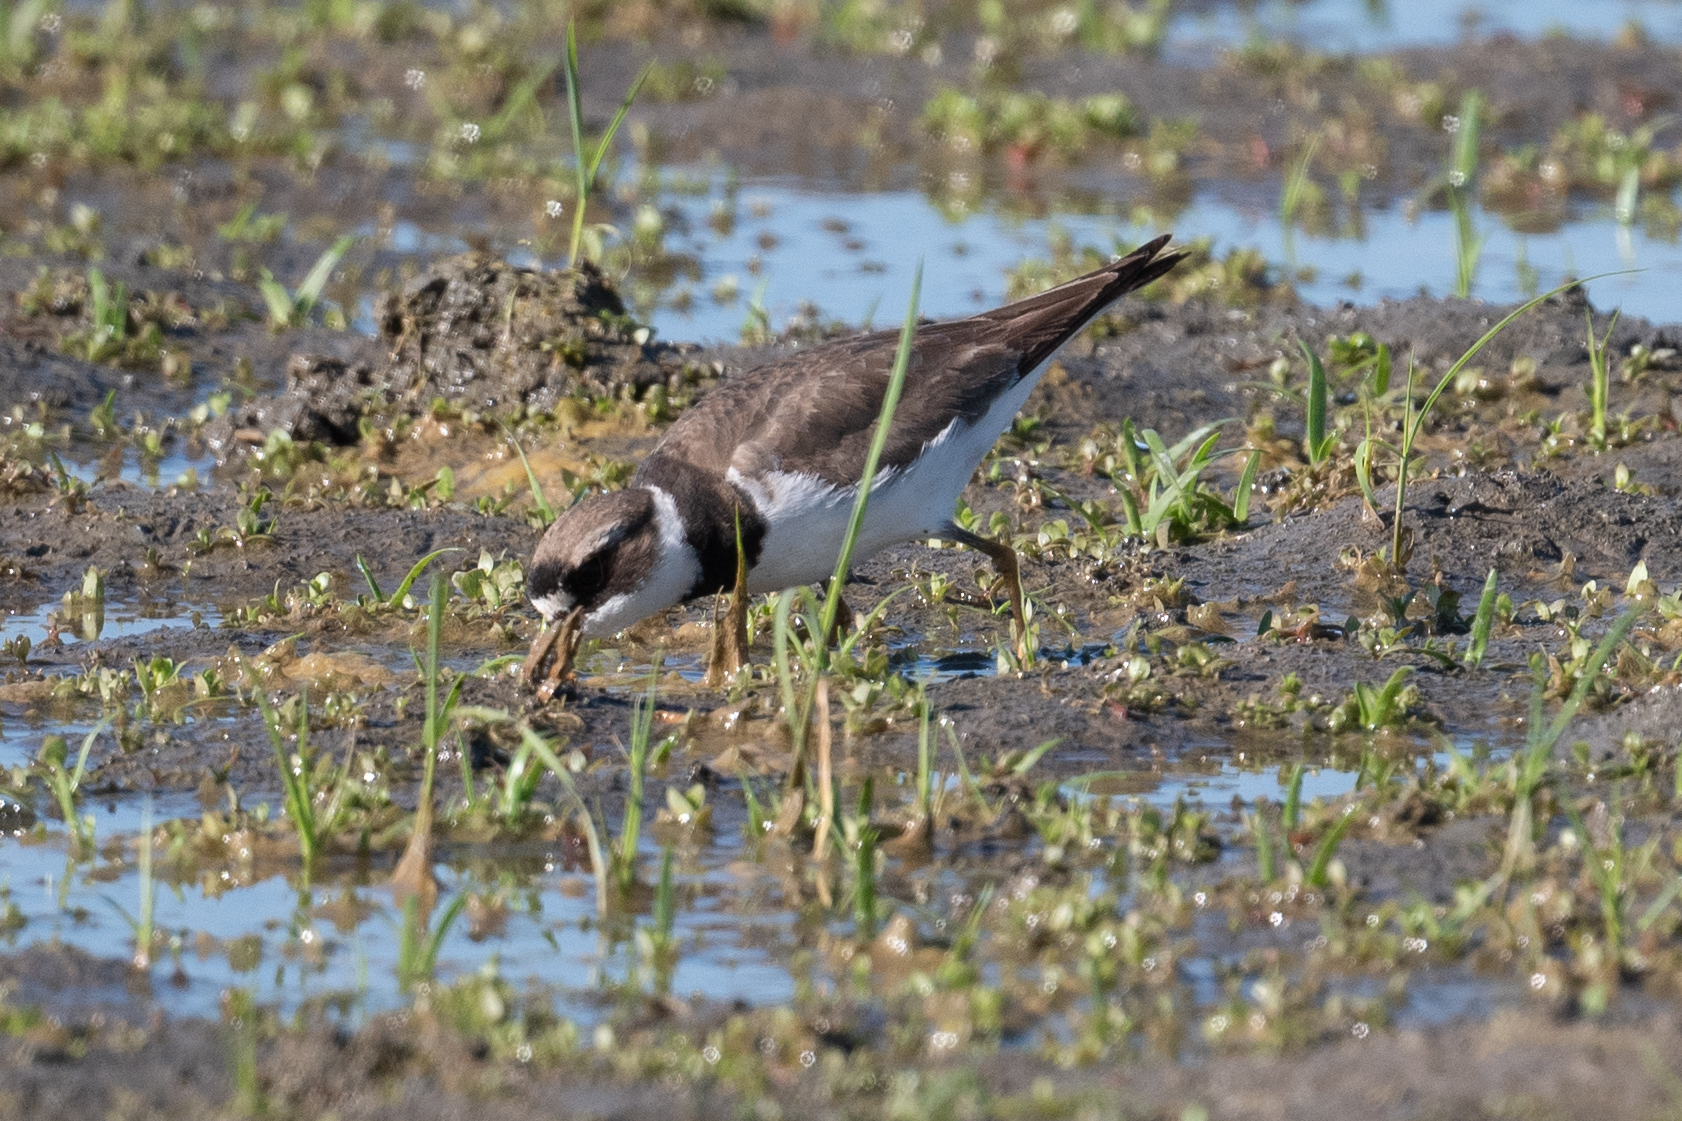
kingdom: Animalia
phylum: Chordata
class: Aves
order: Charadriiformes
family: Charadriidae
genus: Charadrius
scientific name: Charadrius semipalmatus
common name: Semipalmated plover
